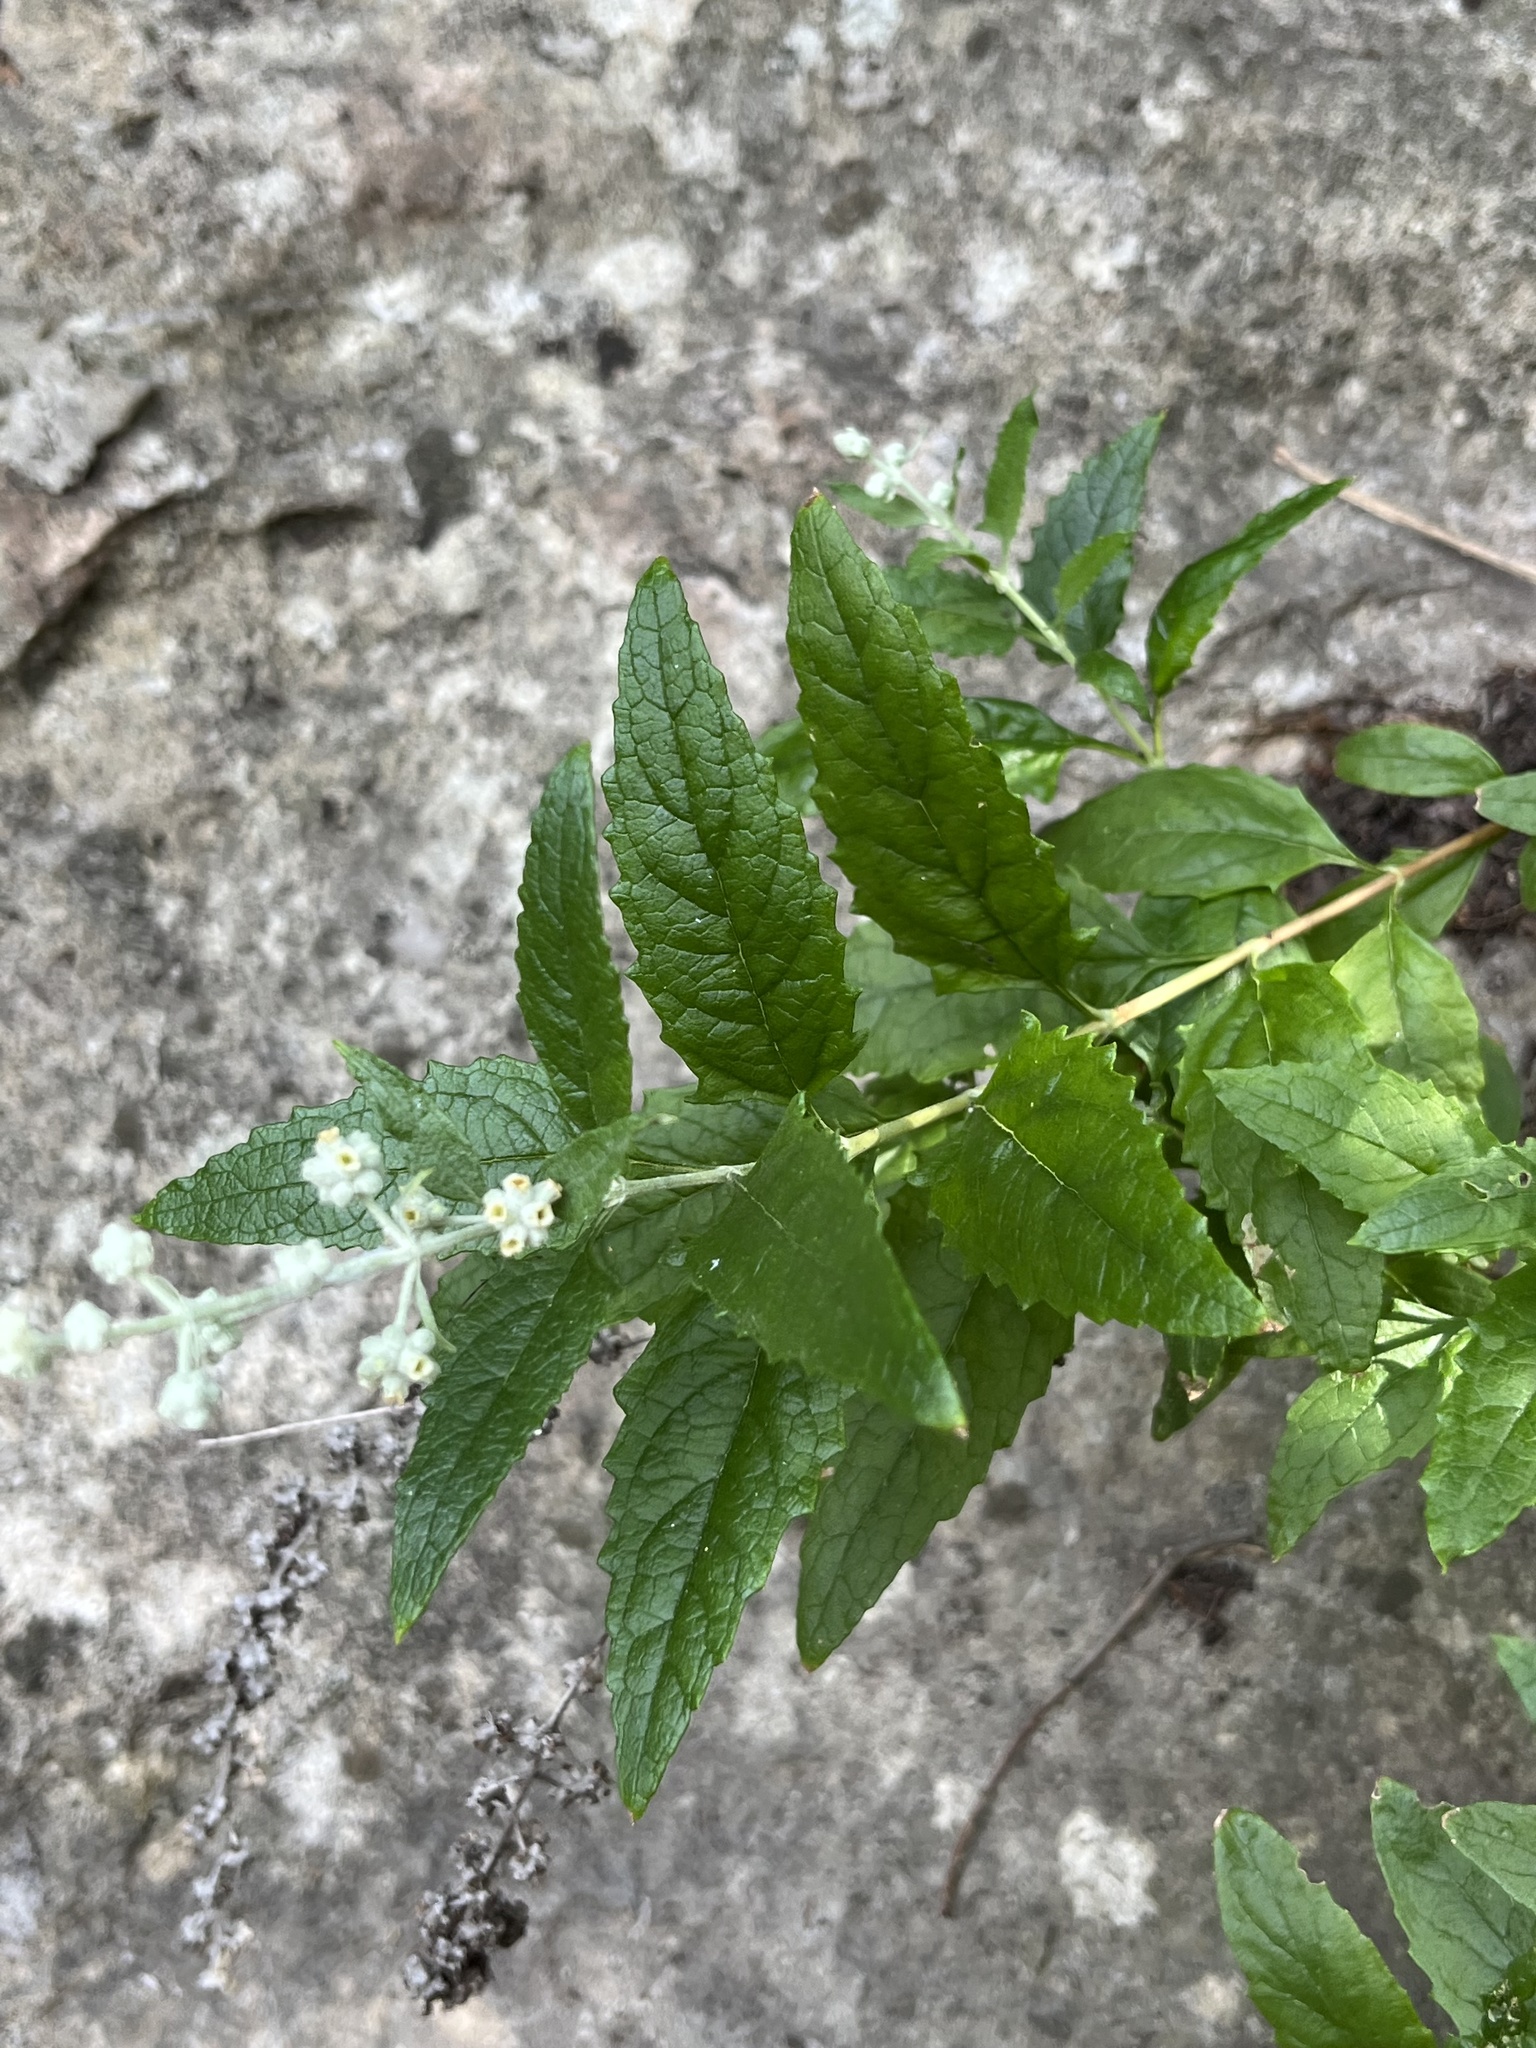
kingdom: Plantae
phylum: Tracheophyta
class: Magnoliopsida
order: Lamiales
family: Scrophulariaceae
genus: Buddleja
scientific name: Buddleja racemosa
